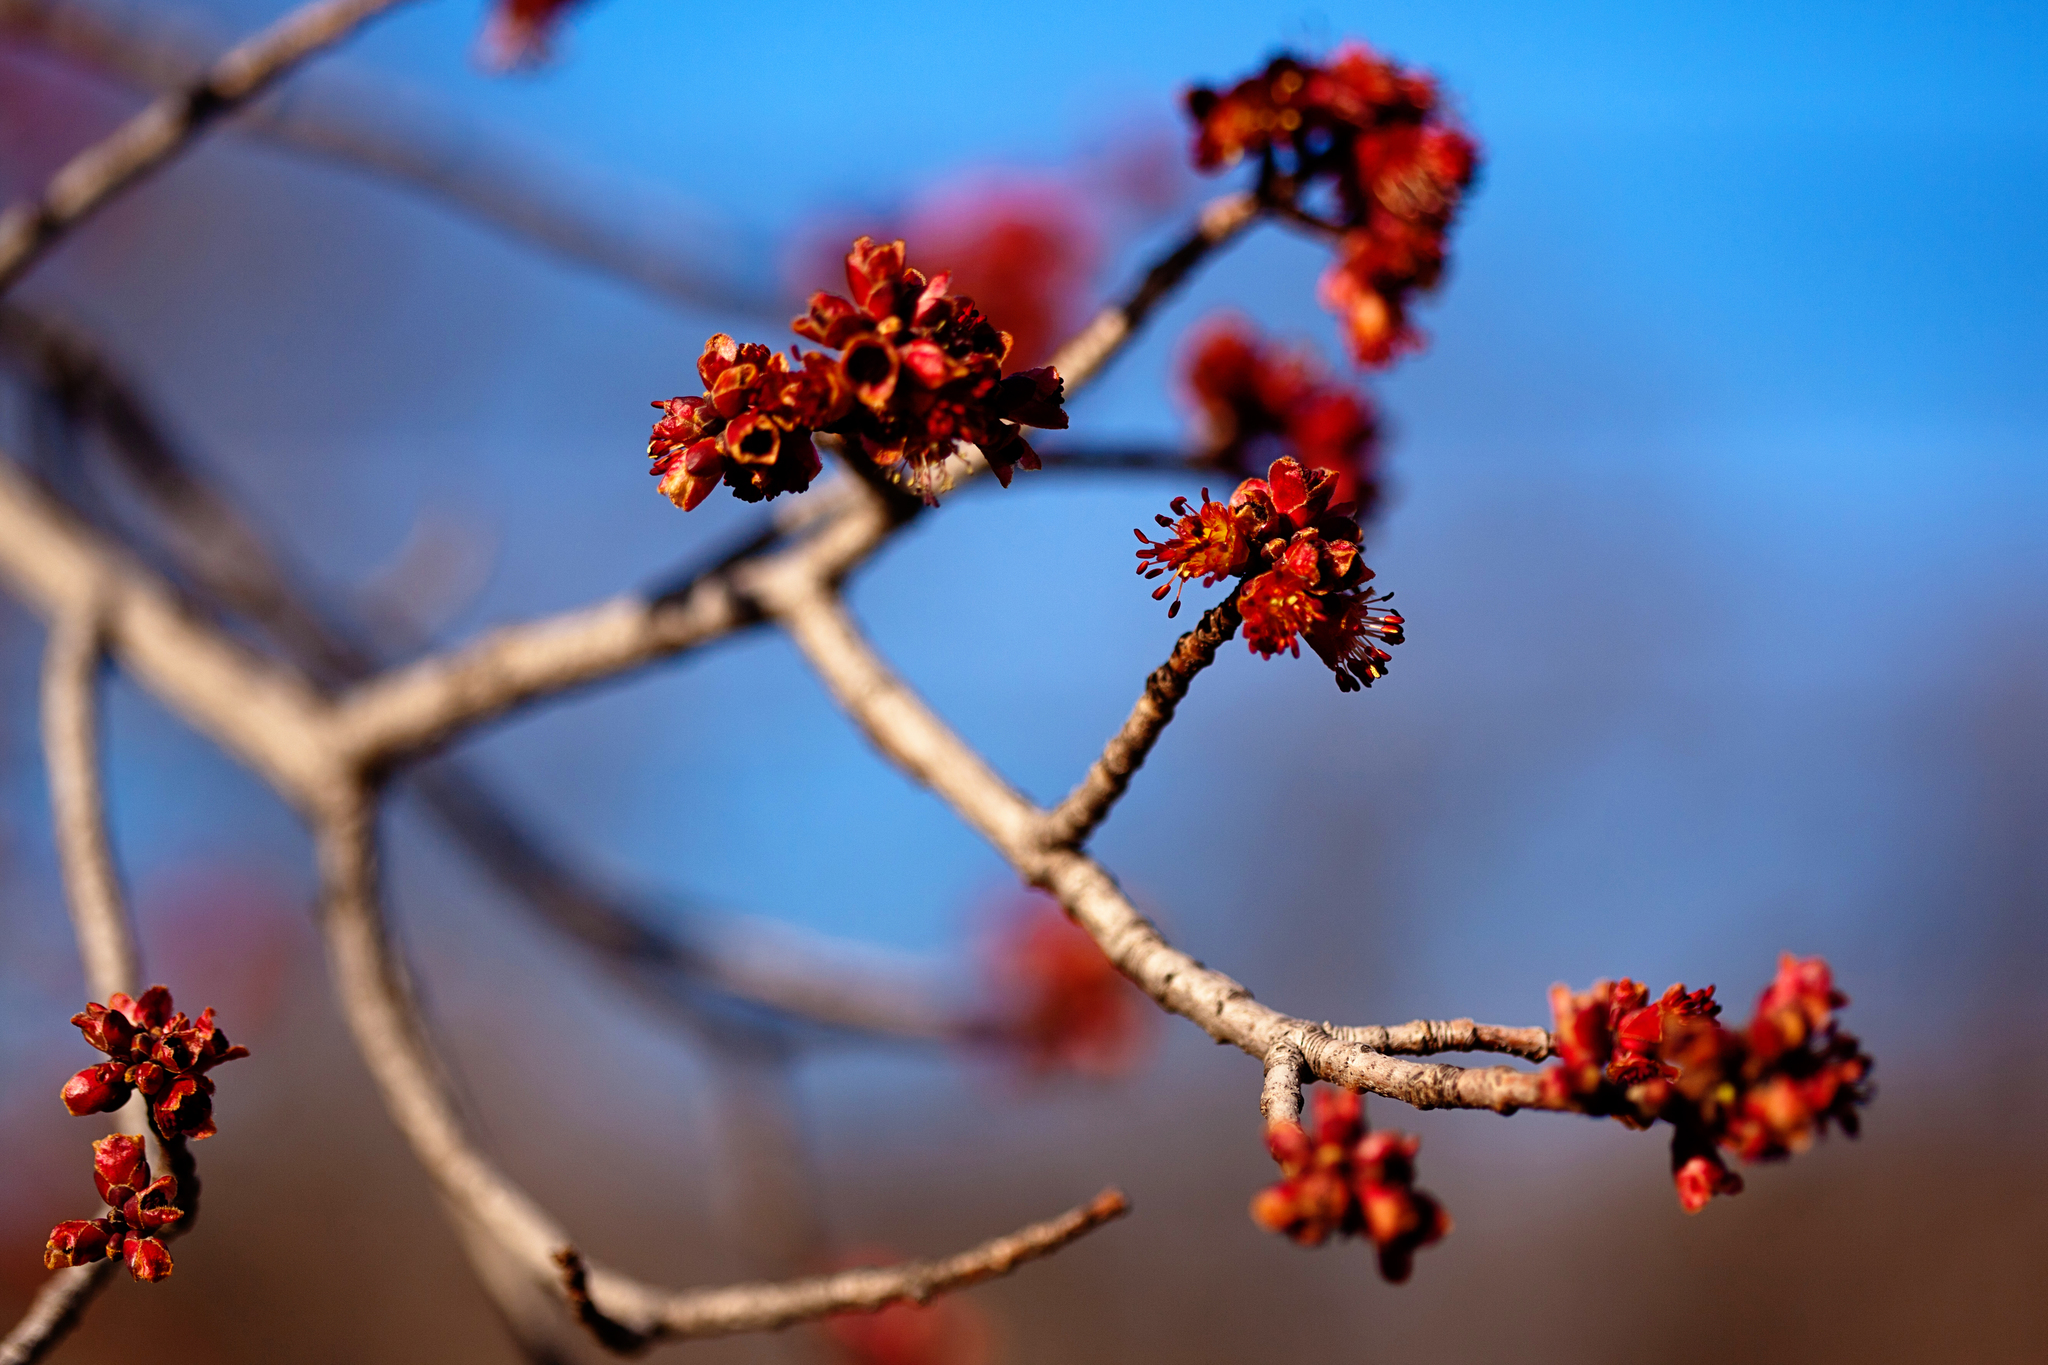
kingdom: Plantae
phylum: Tracheophyta
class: Magnoliopsida
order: Sapindales
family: Sapindaceae
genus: Acer
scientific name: Acer rubrum
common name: Red maple
